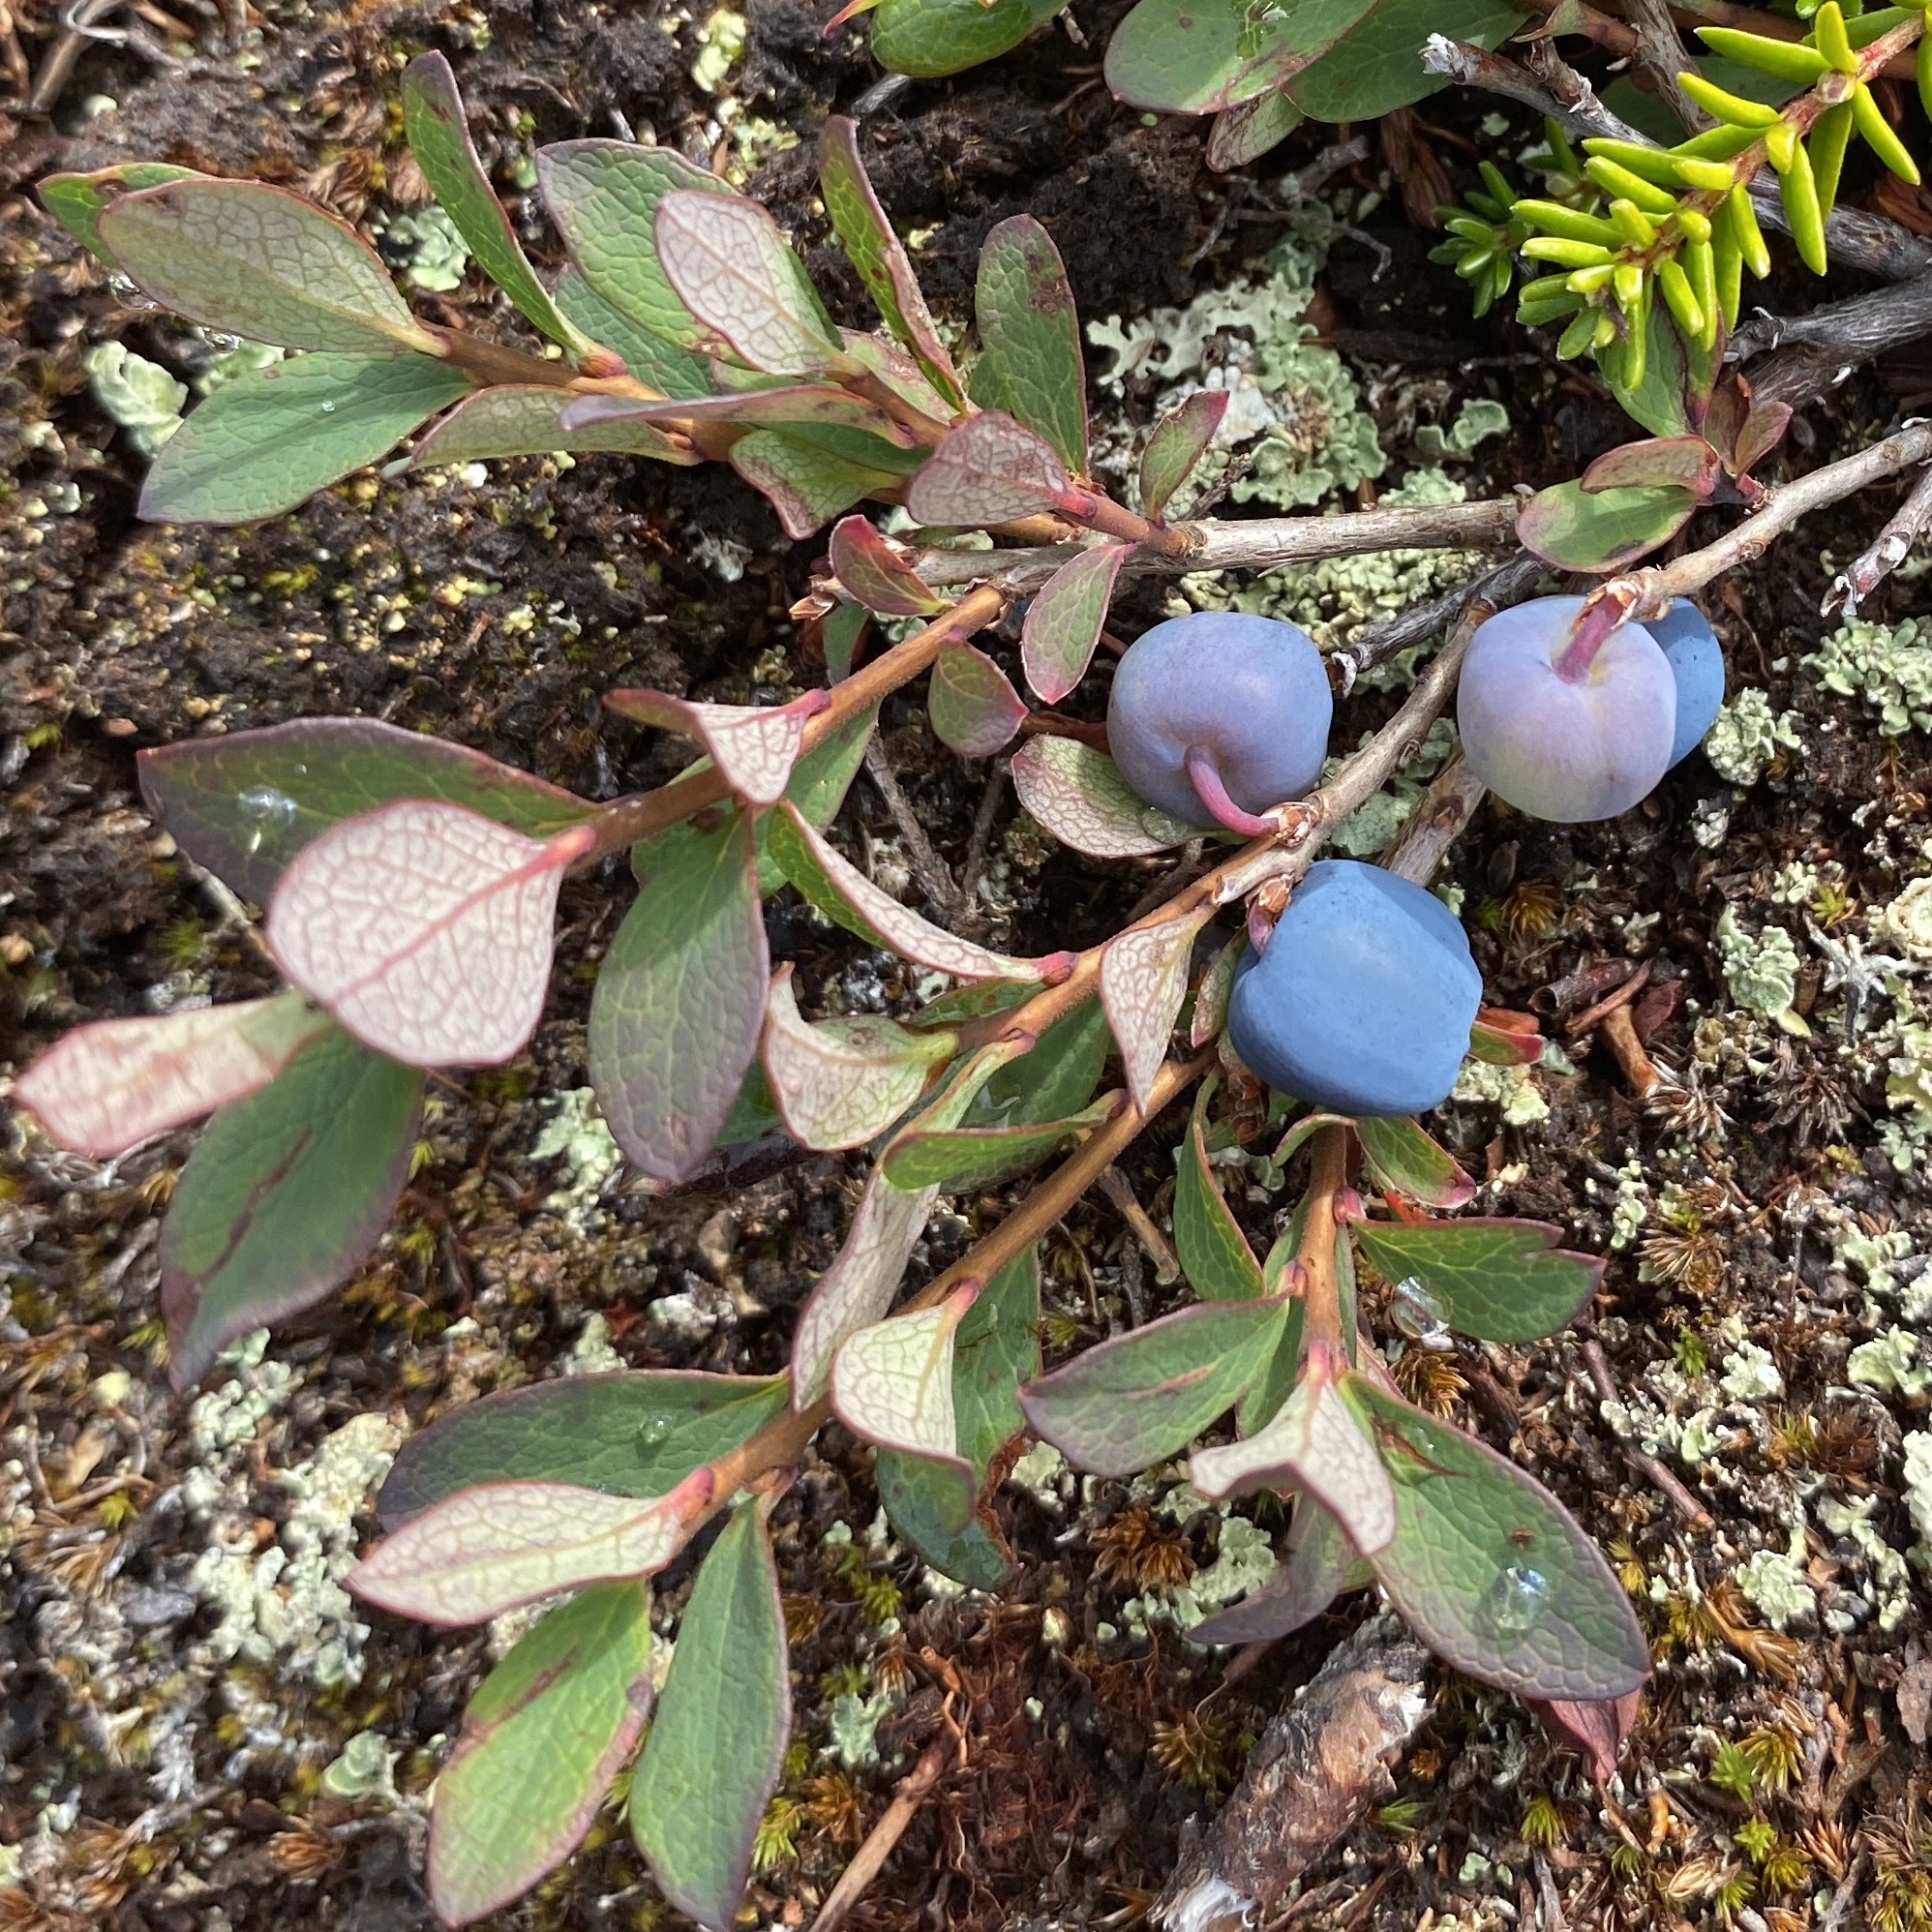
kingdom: Plantae
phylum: Tracheophyta
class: Magnoliopsida
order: Ericales
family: Ericaceae
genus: Vaccinium
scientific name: Vaccinium uliginosum
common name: Bog bilberry
